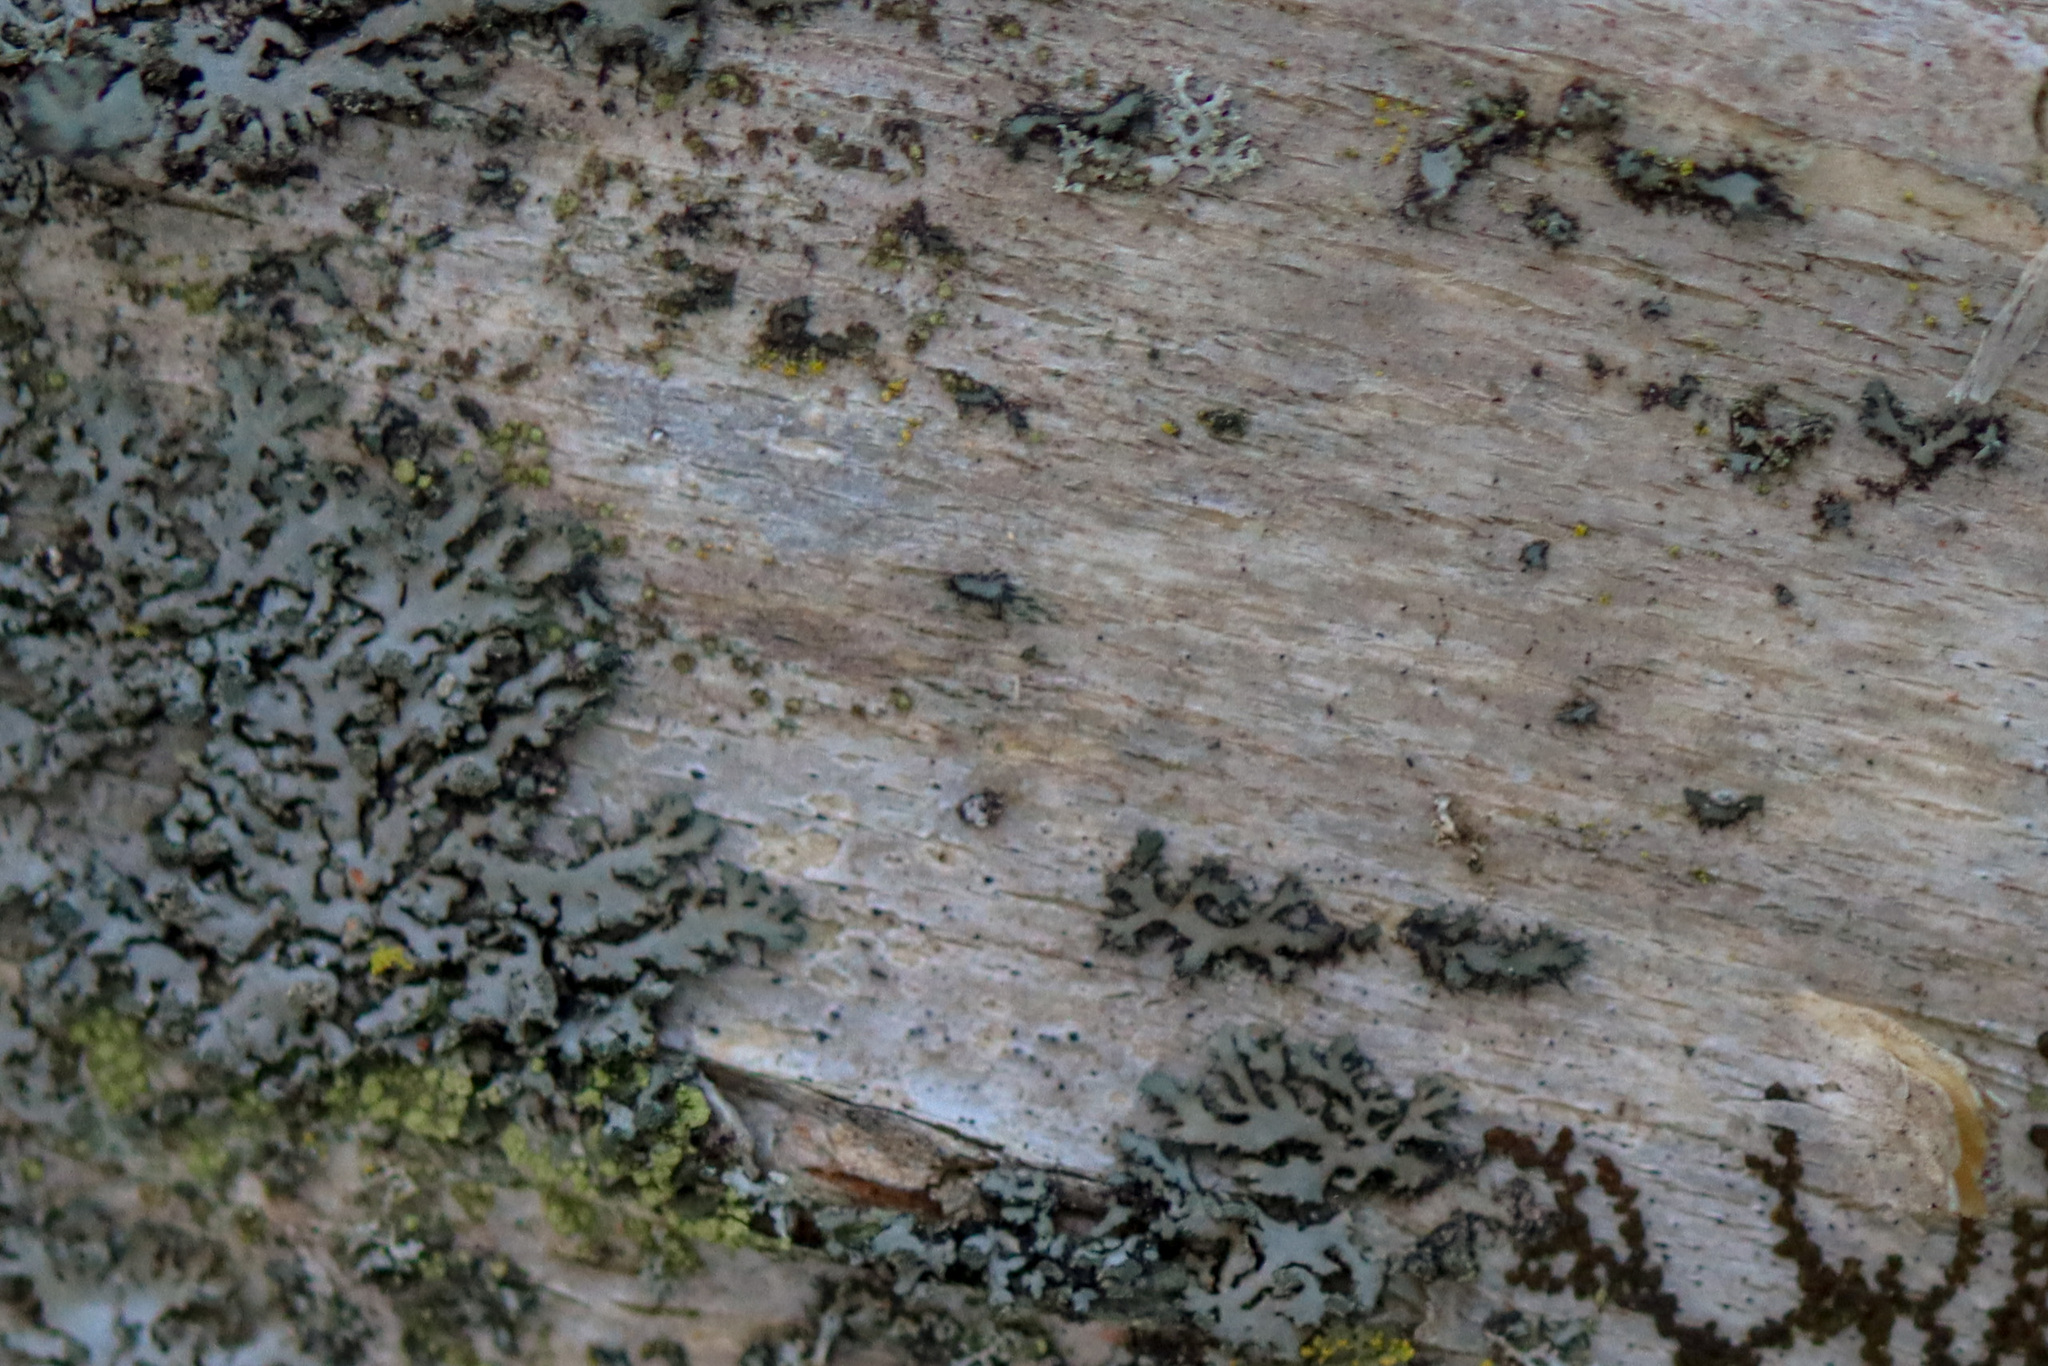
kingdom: Fungi
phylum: Ascomycota
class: Lecanoromycetes
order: Caliciales
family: Physciaceae
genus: Phaeophyscia
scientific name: Phaeophyscia rubropulchra
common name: Orange-cored shadow lichen
